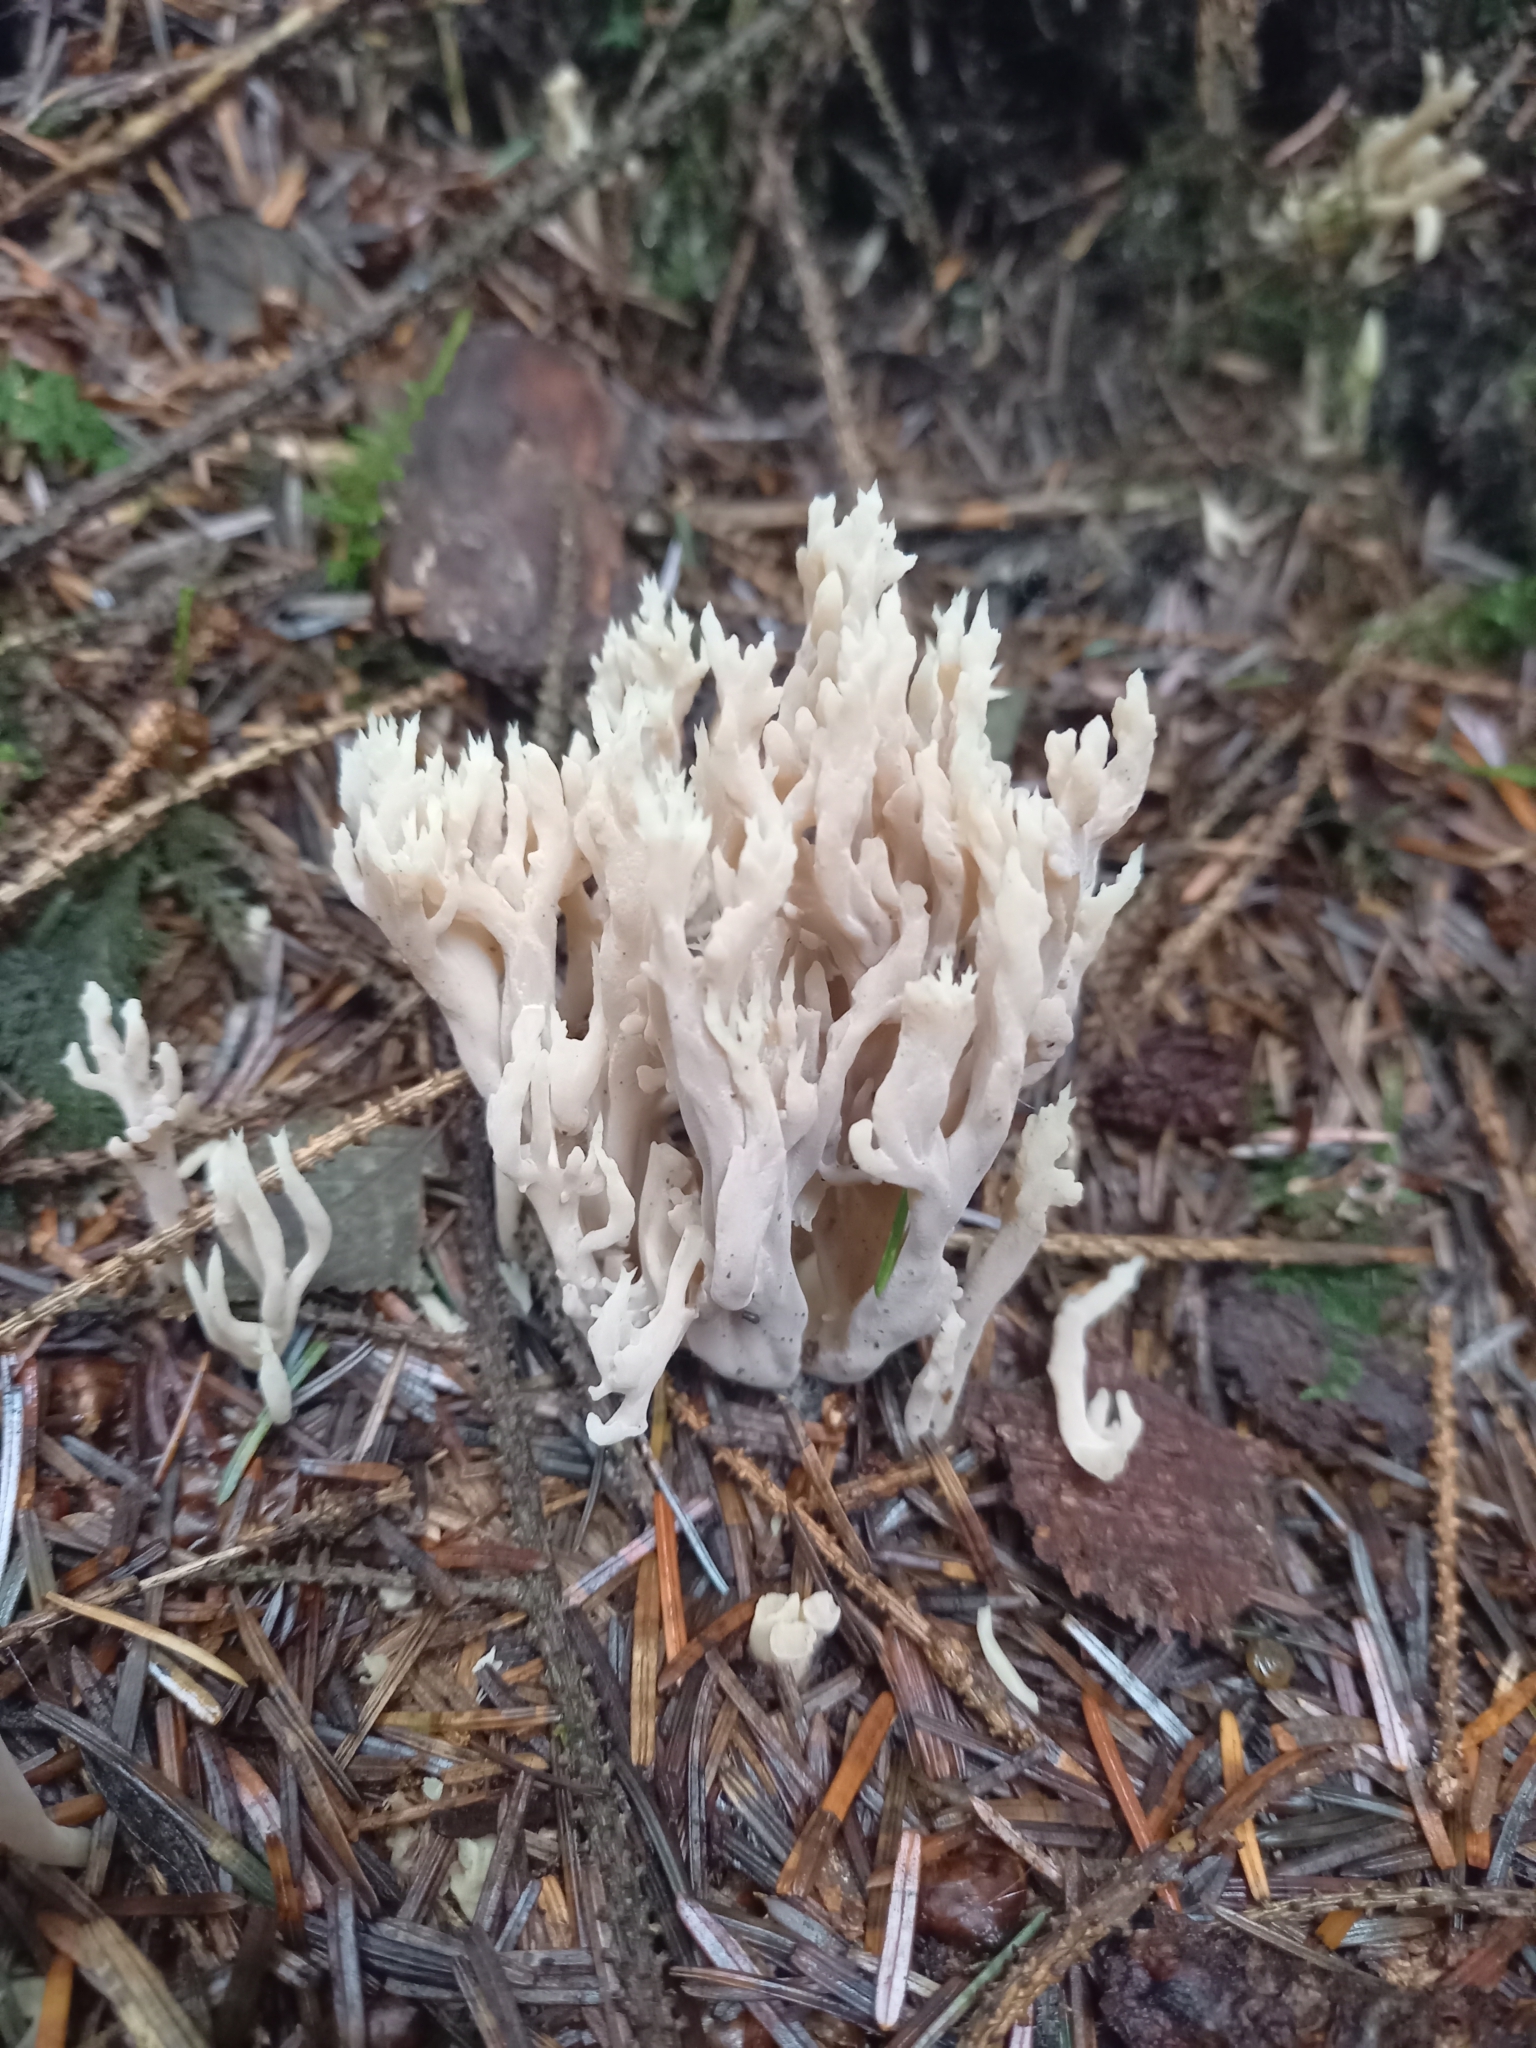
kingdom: Fungi
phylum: Basidiomycota
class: Agaricomycetes
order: Cantharellales
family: Hydnaceae
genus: Clavulina
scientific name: Clavulina coralloides
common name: Crested coral
